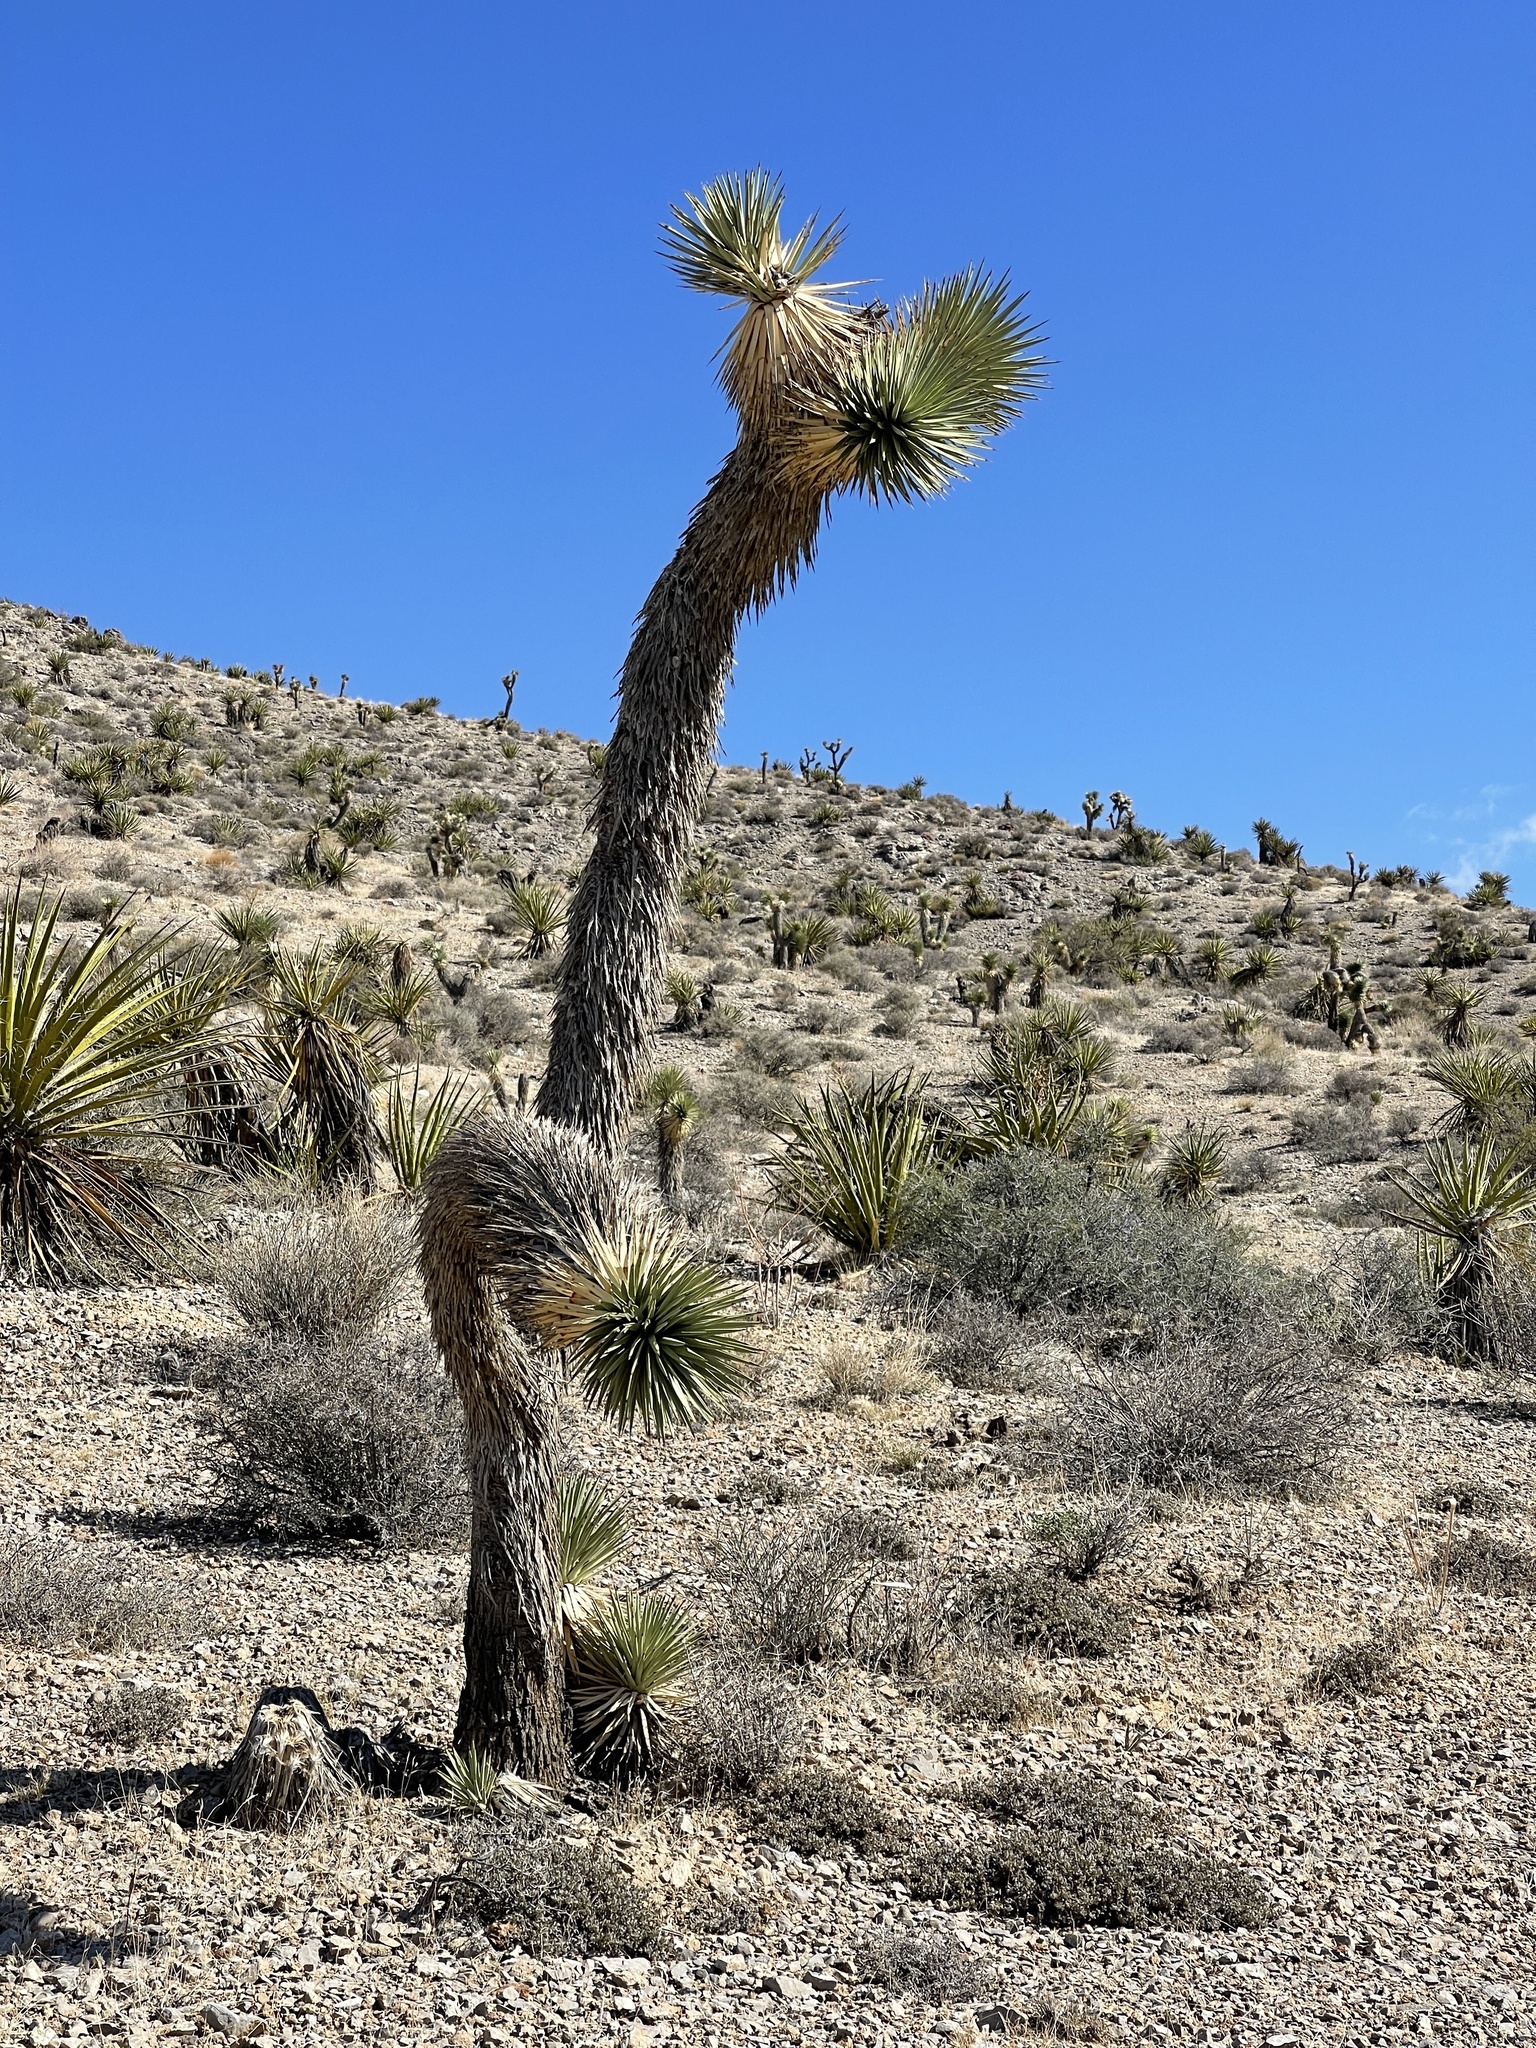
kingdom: Plantae
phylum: Tracheophyta
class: Liliopsida
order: Asparagales
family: Asparagaceae
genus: Yucca
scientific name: Yucca brevifolia
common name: Joshua tree
